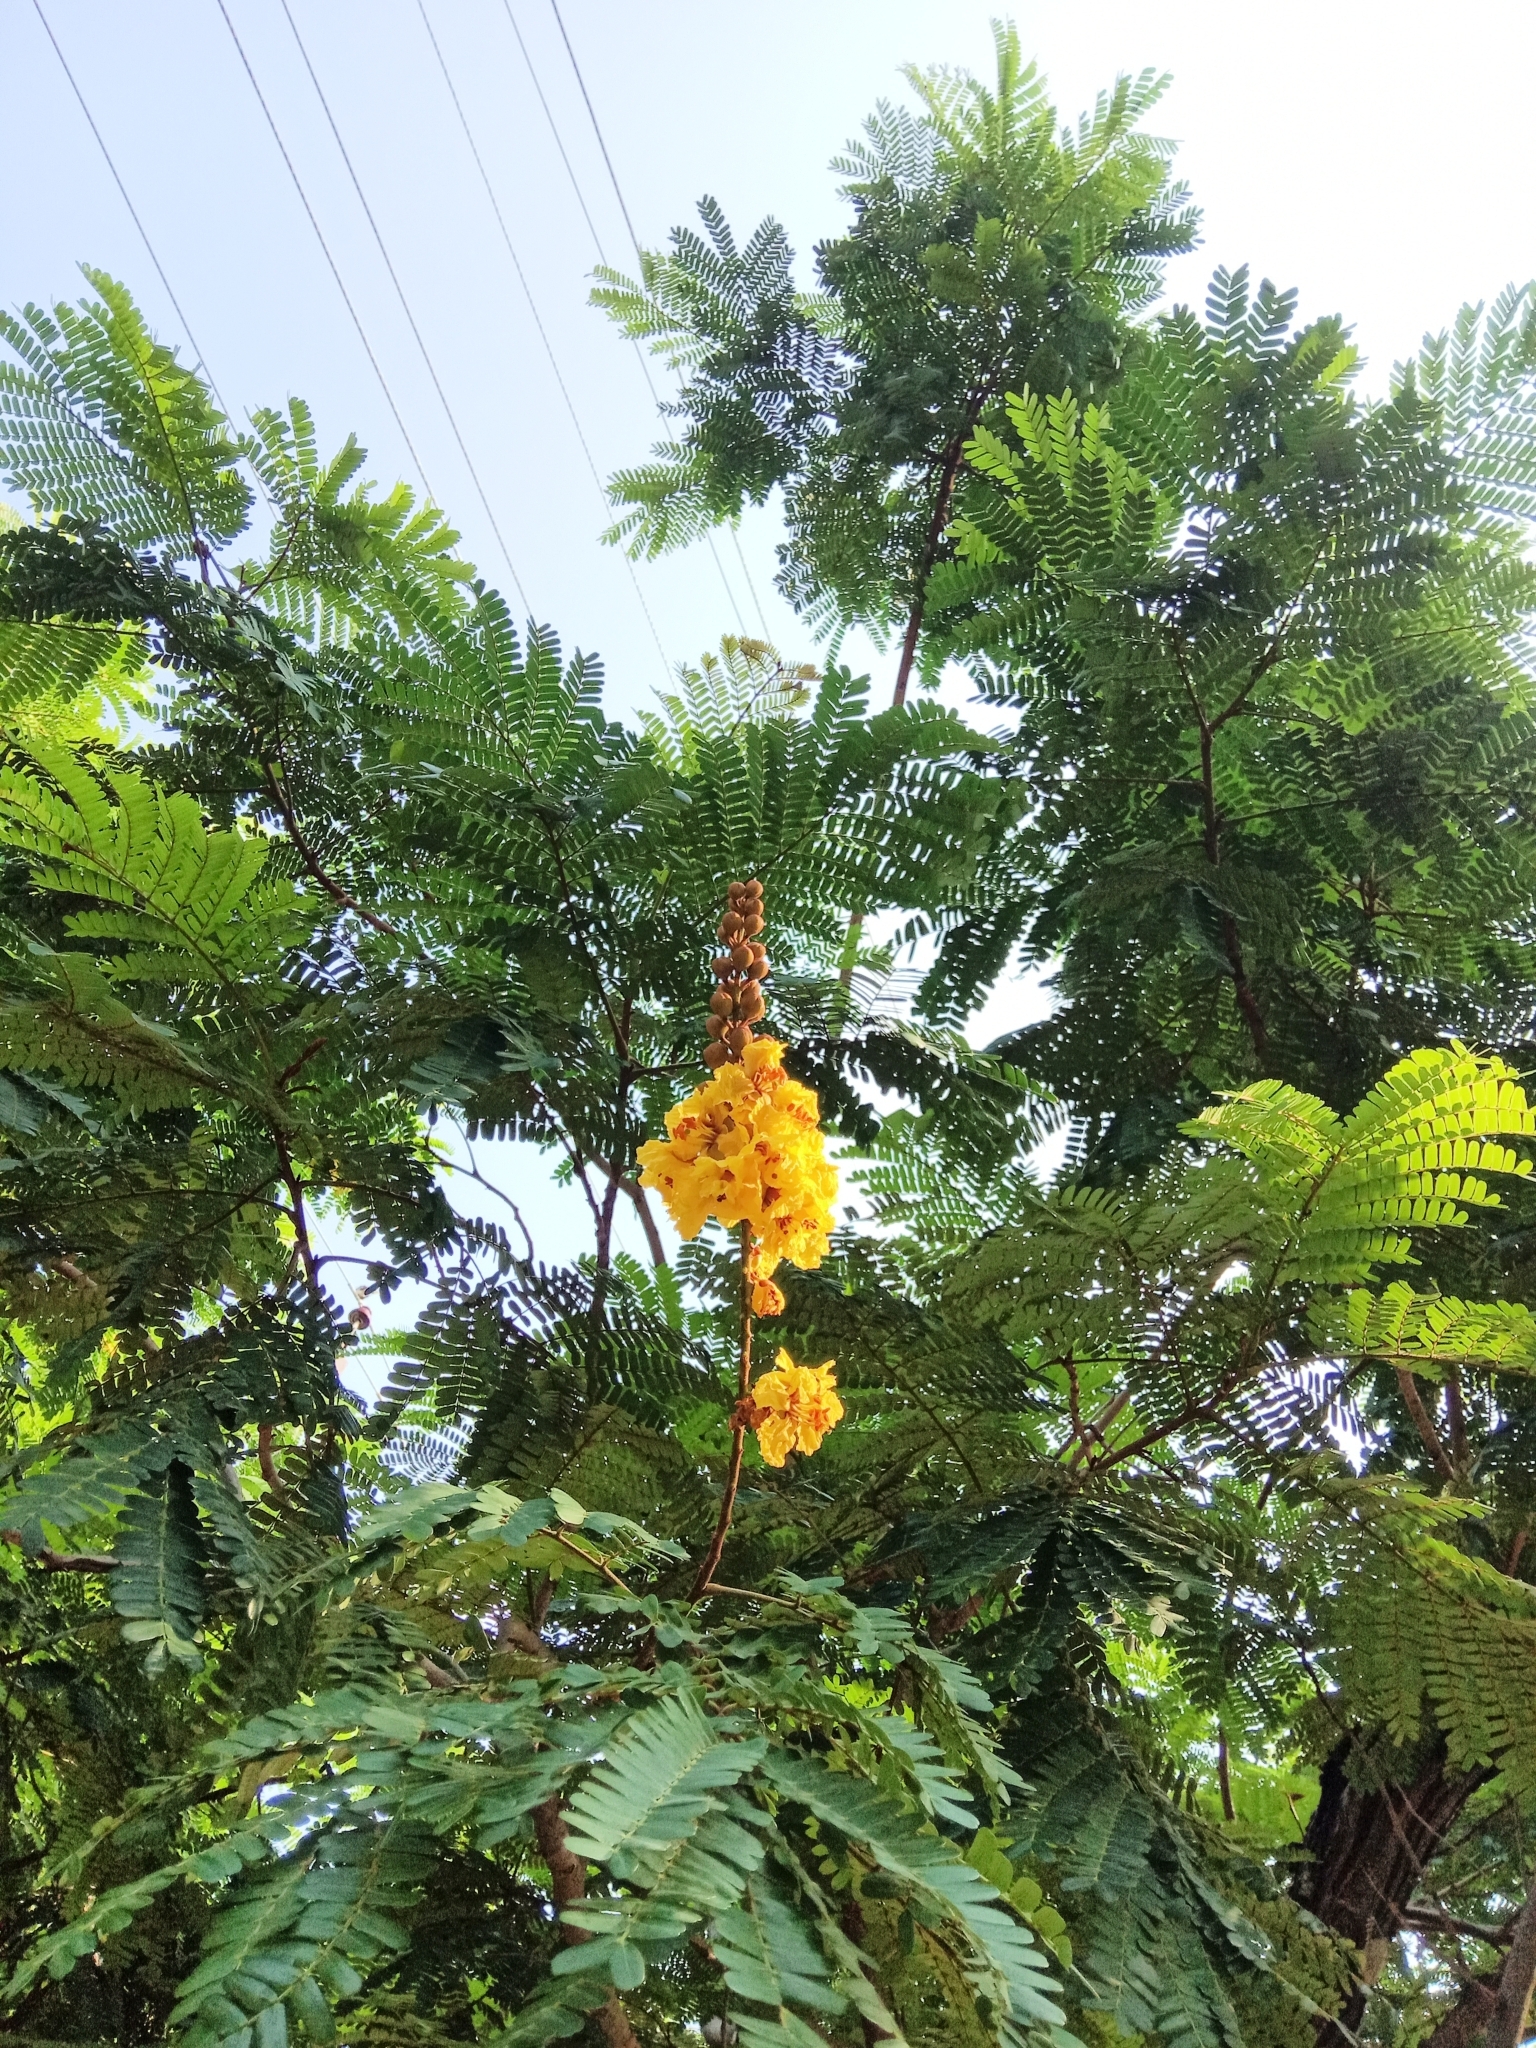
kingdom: Plantae
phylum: Tracheophyta
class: Magnoliopsida
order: Fabales
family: Fabaceae
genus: Peltophorum
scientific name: Peltophorum pterocarpum
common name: Yellow flame
